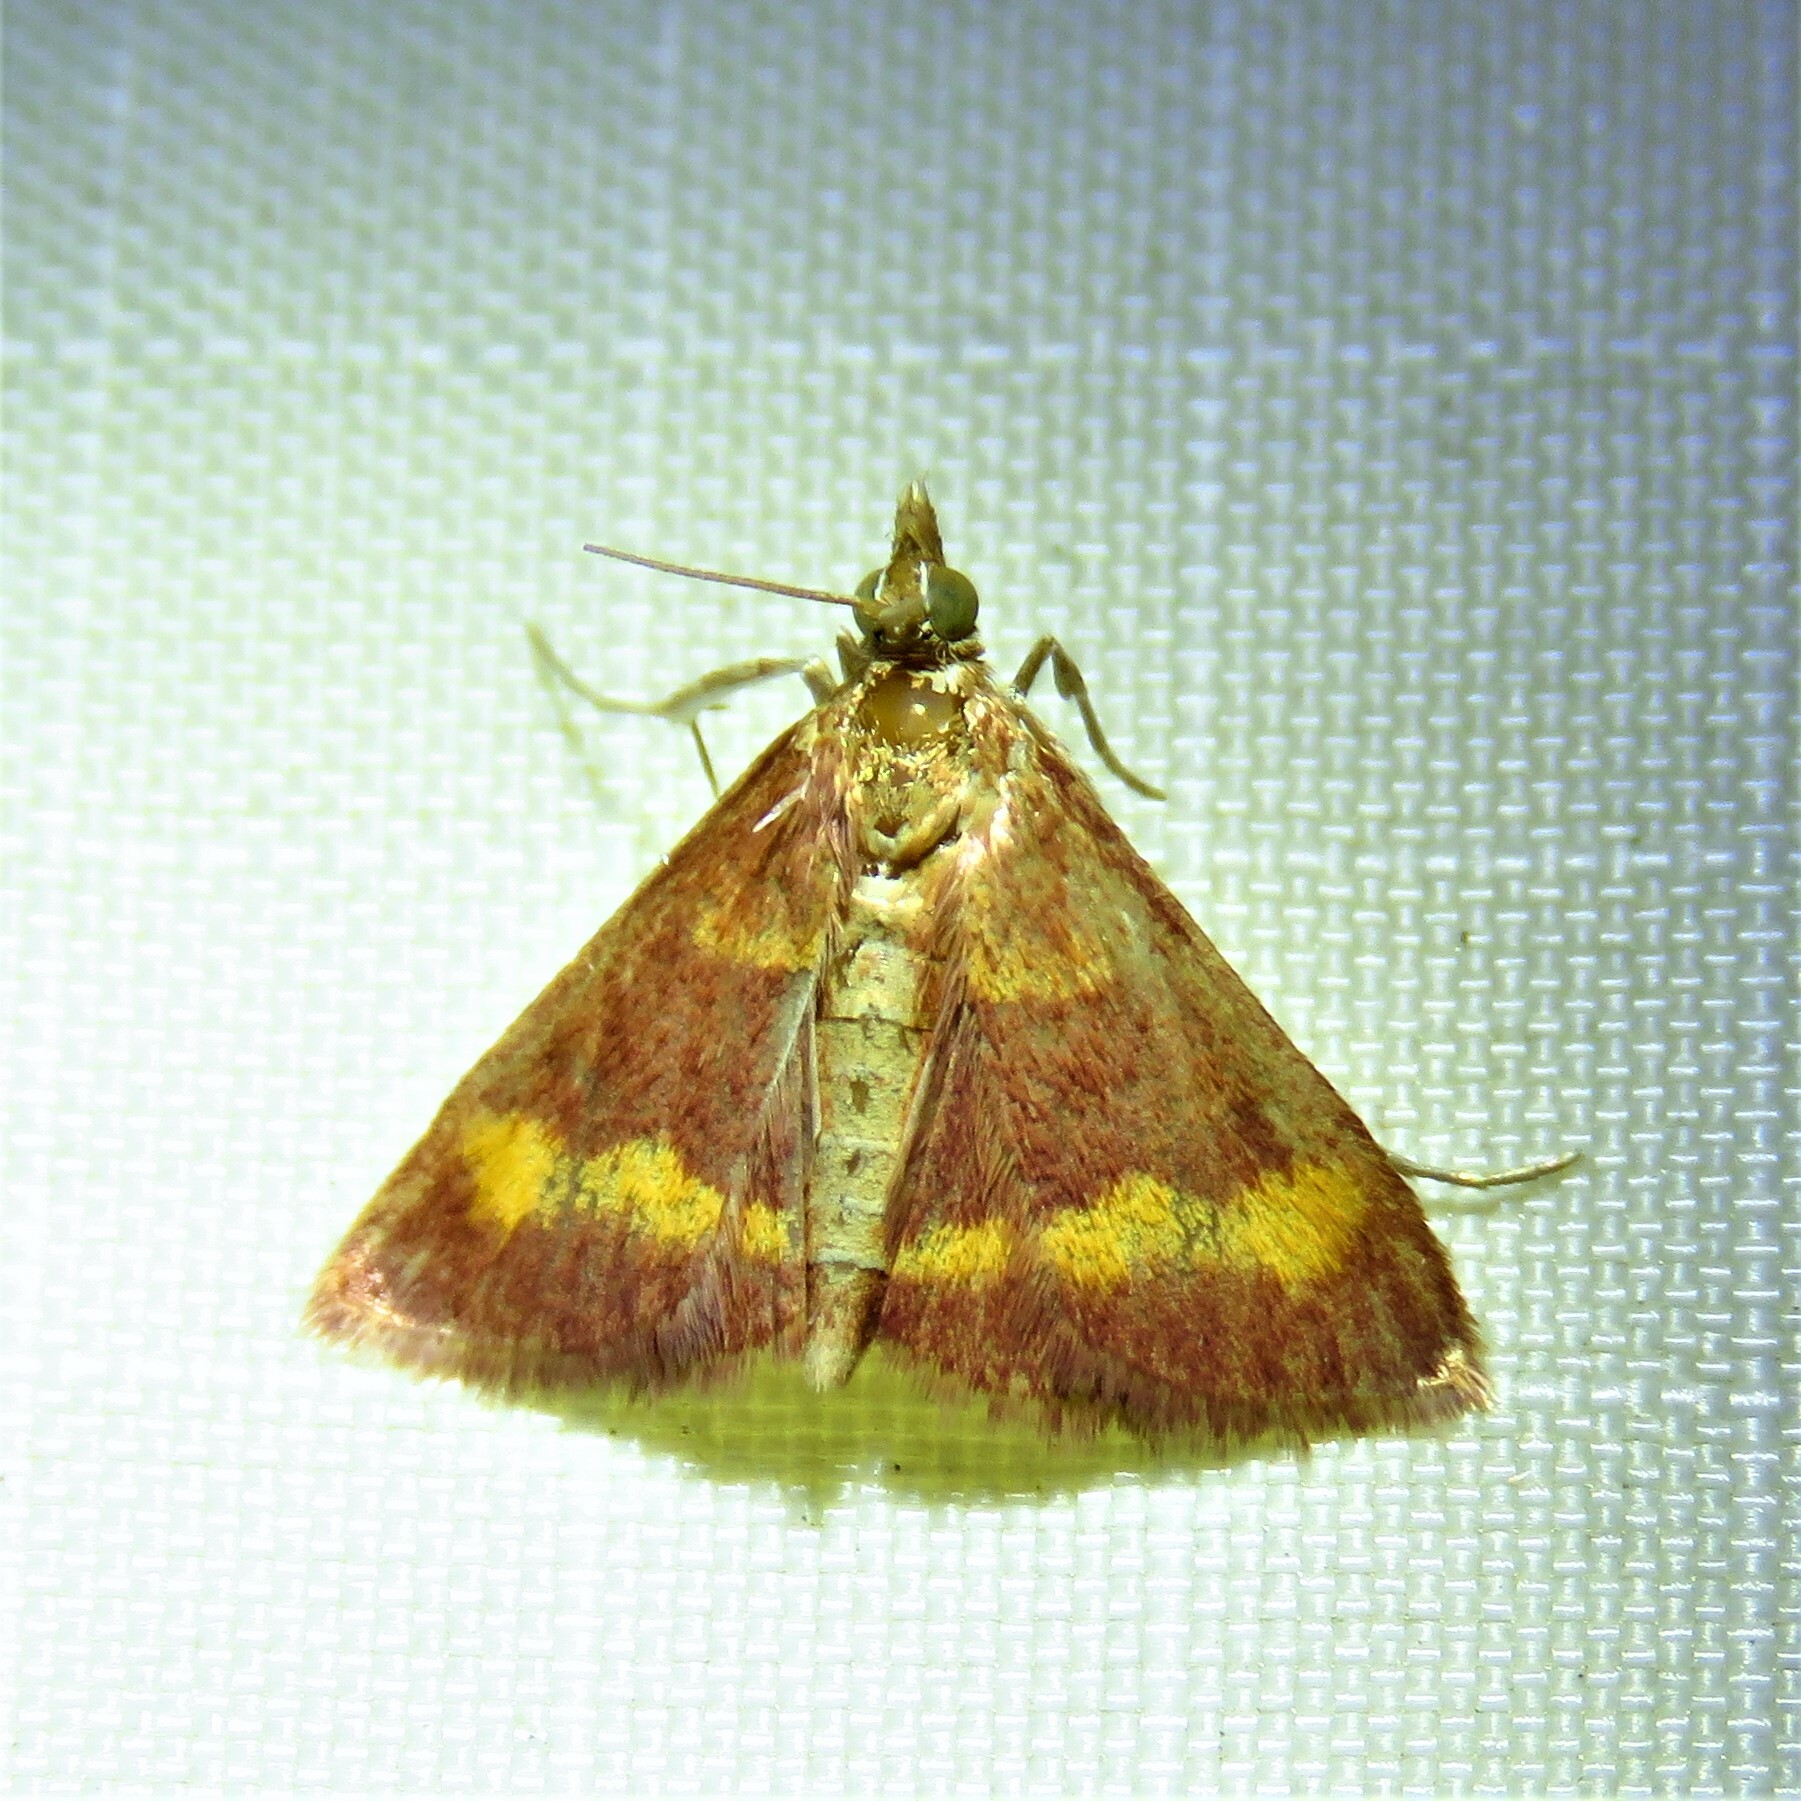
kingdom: Animalia
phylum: Arthropoda
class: Insecta
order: Lepidoptera
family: Crambidae
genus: Pyrausta
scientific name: Pyrausta pseuderosnealis
